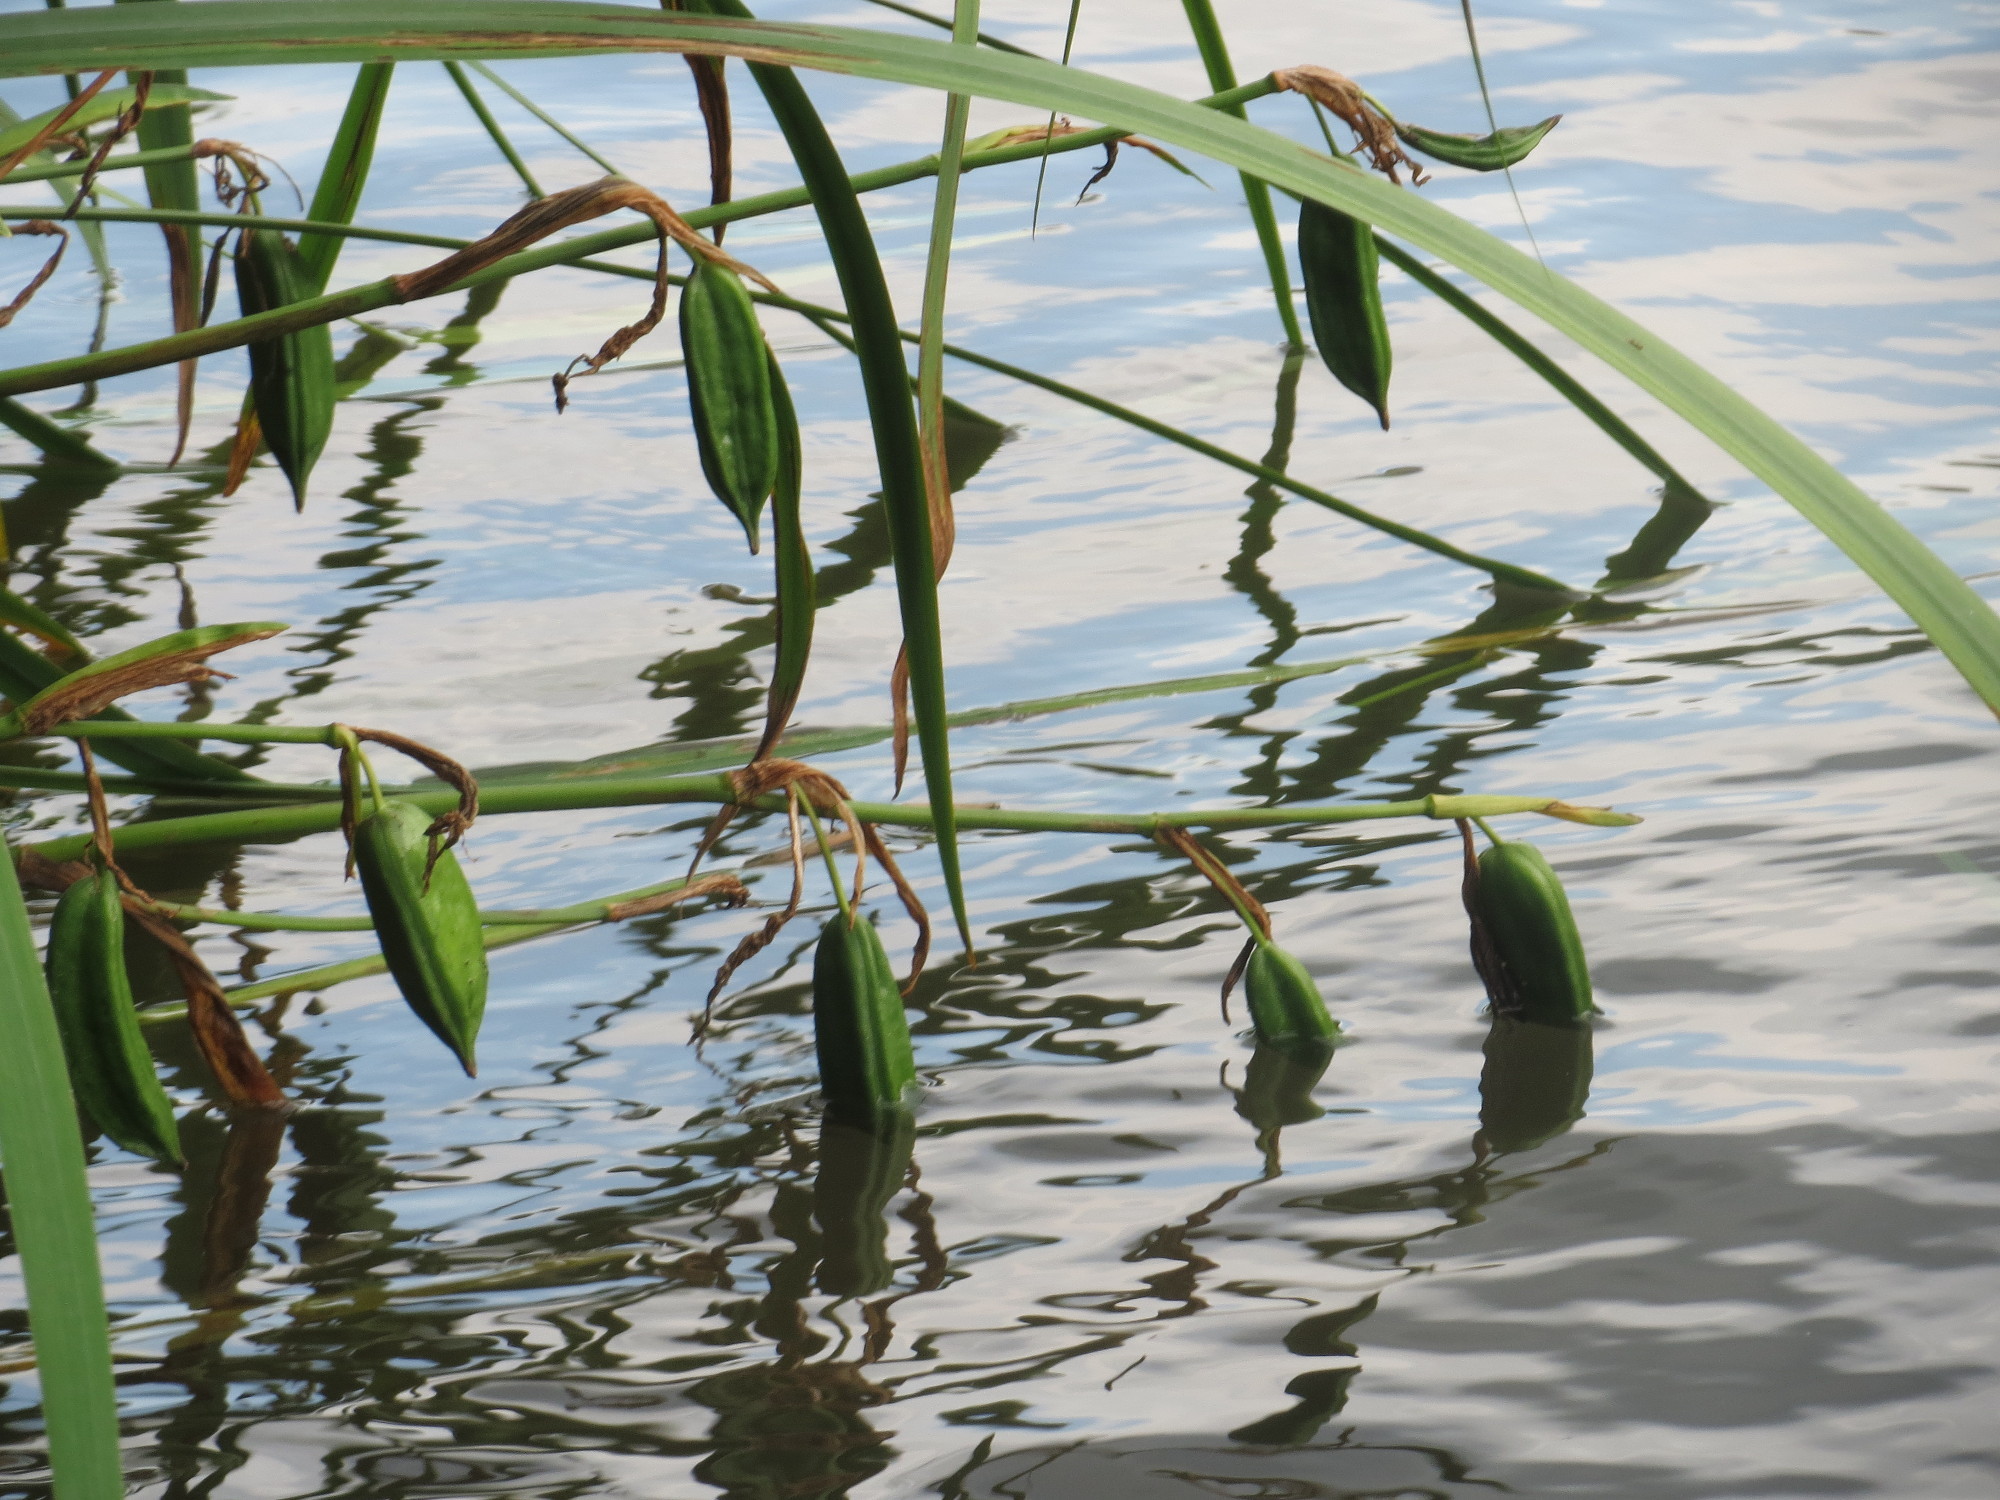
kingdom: Plantae
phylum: Tracheophyta
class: Liliopsida
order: Asparagales
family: Iridaceae
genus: Iris
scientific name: Iris pseudacorus
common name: Yellow flag
